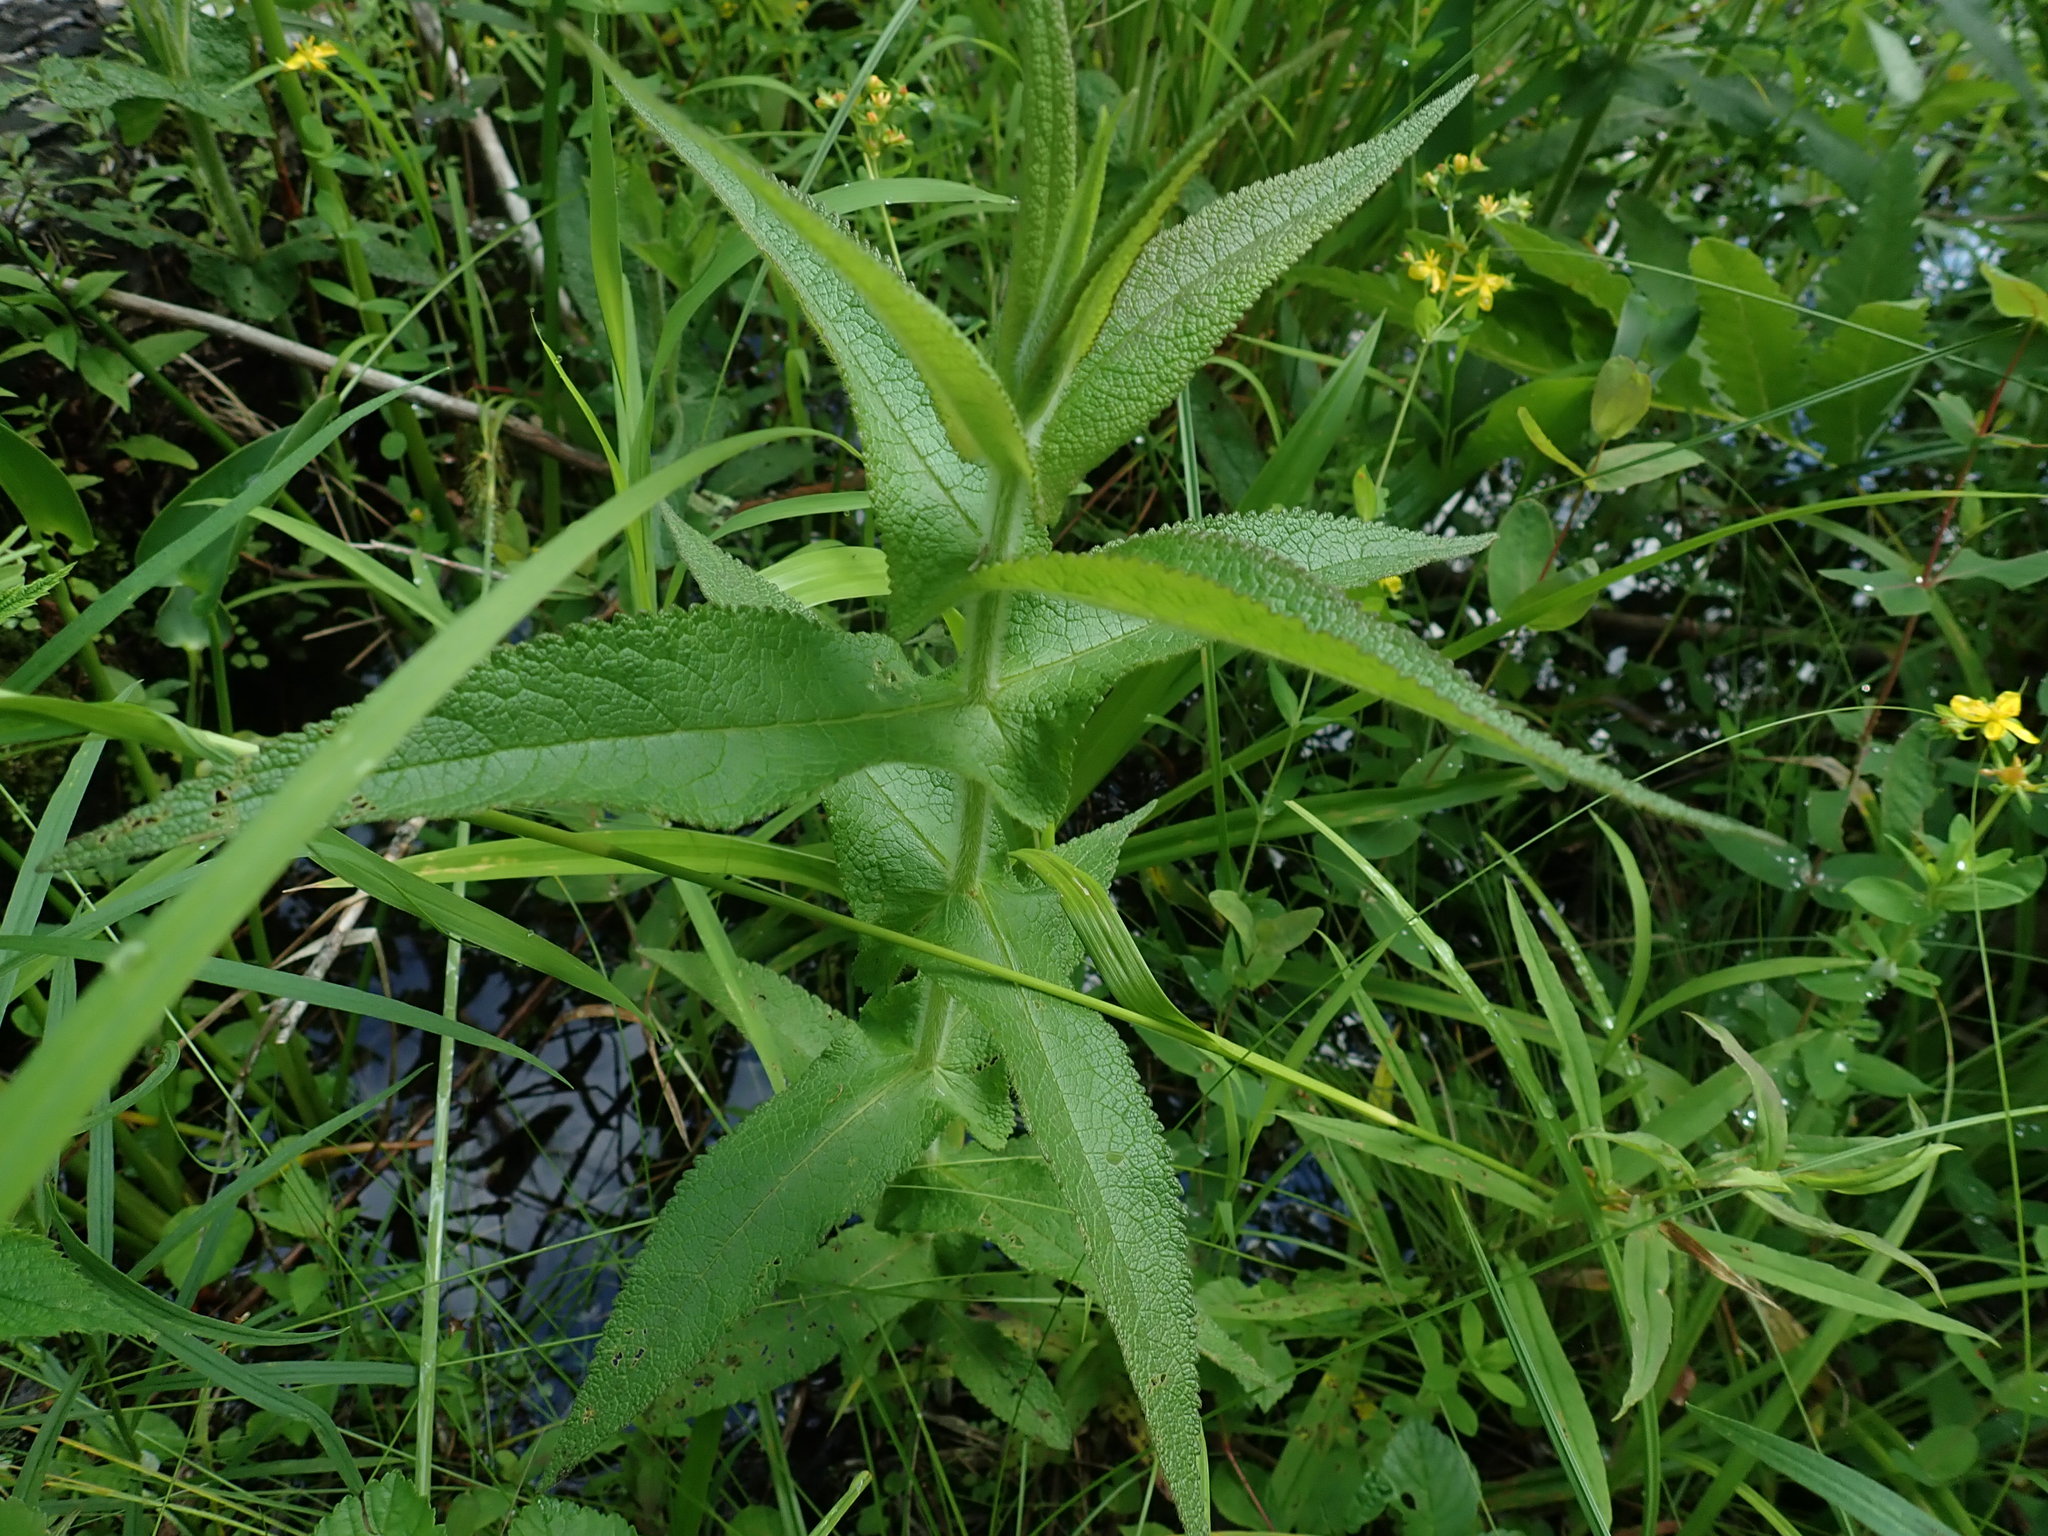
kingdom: Plantae
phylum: Tracheophyta
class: Magnoliopsida
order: Asterales
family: Asteraceae
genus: Eupatorium
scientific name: Eupatorium perfoliatum
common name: Boneset
